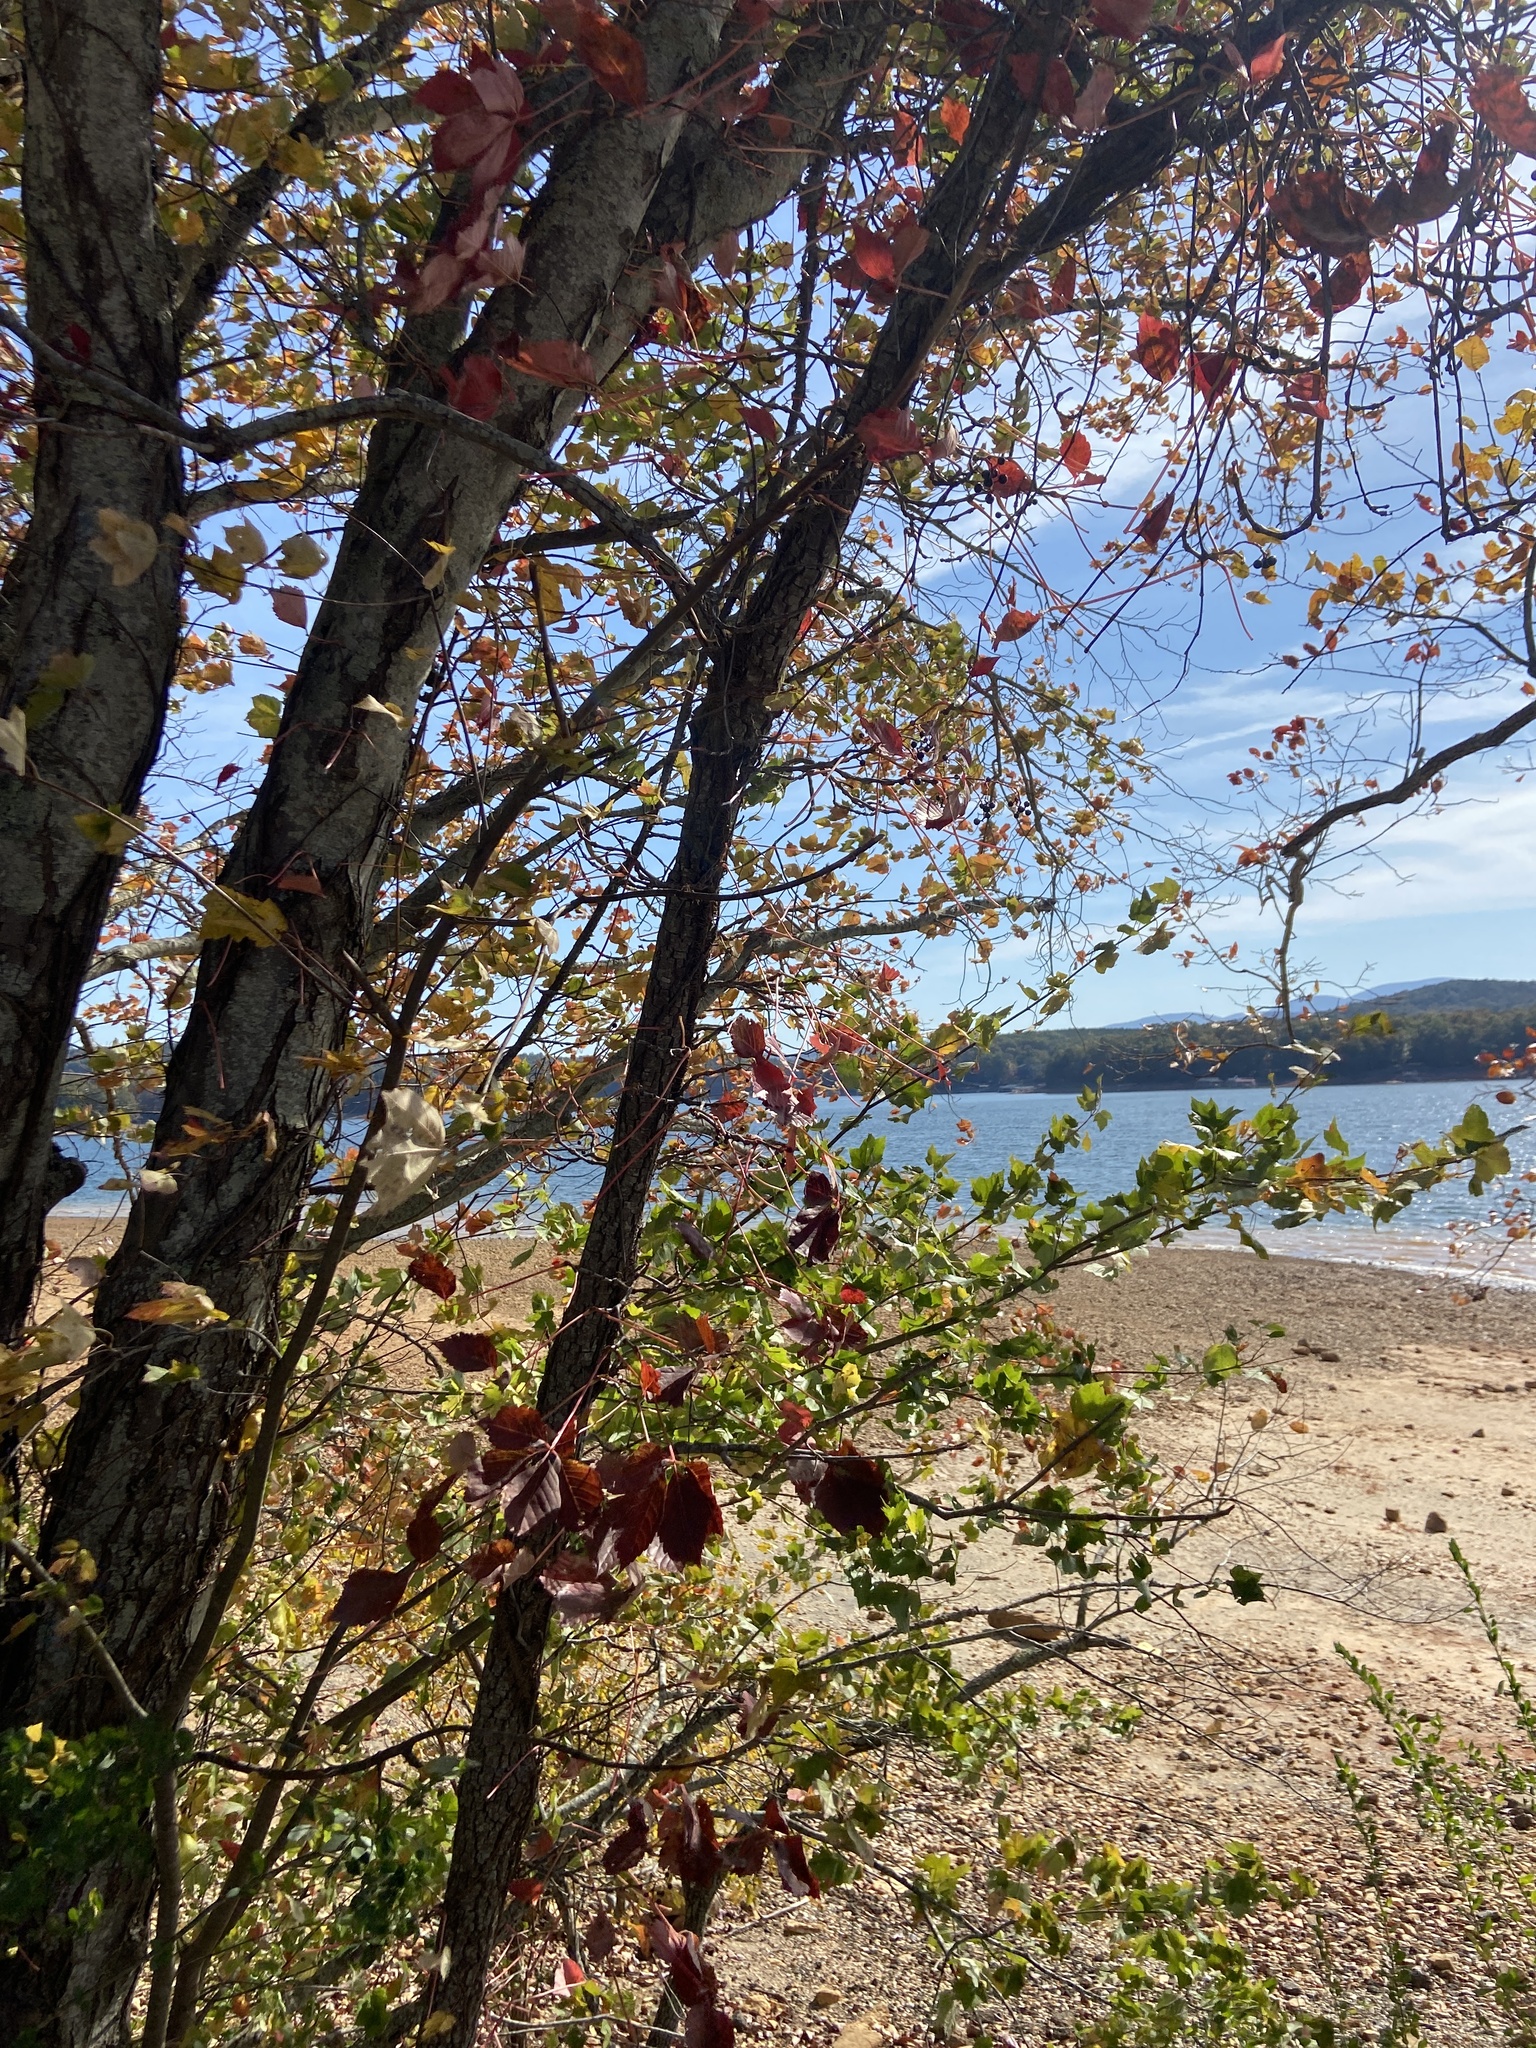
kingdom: Plantae
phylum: Tracheophyta
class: Magnoliopsida
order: Vitales
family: Vitaceae
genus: Parthenocissus
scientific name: Parthenocissus quinquefolia
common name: Virginia-creeper
